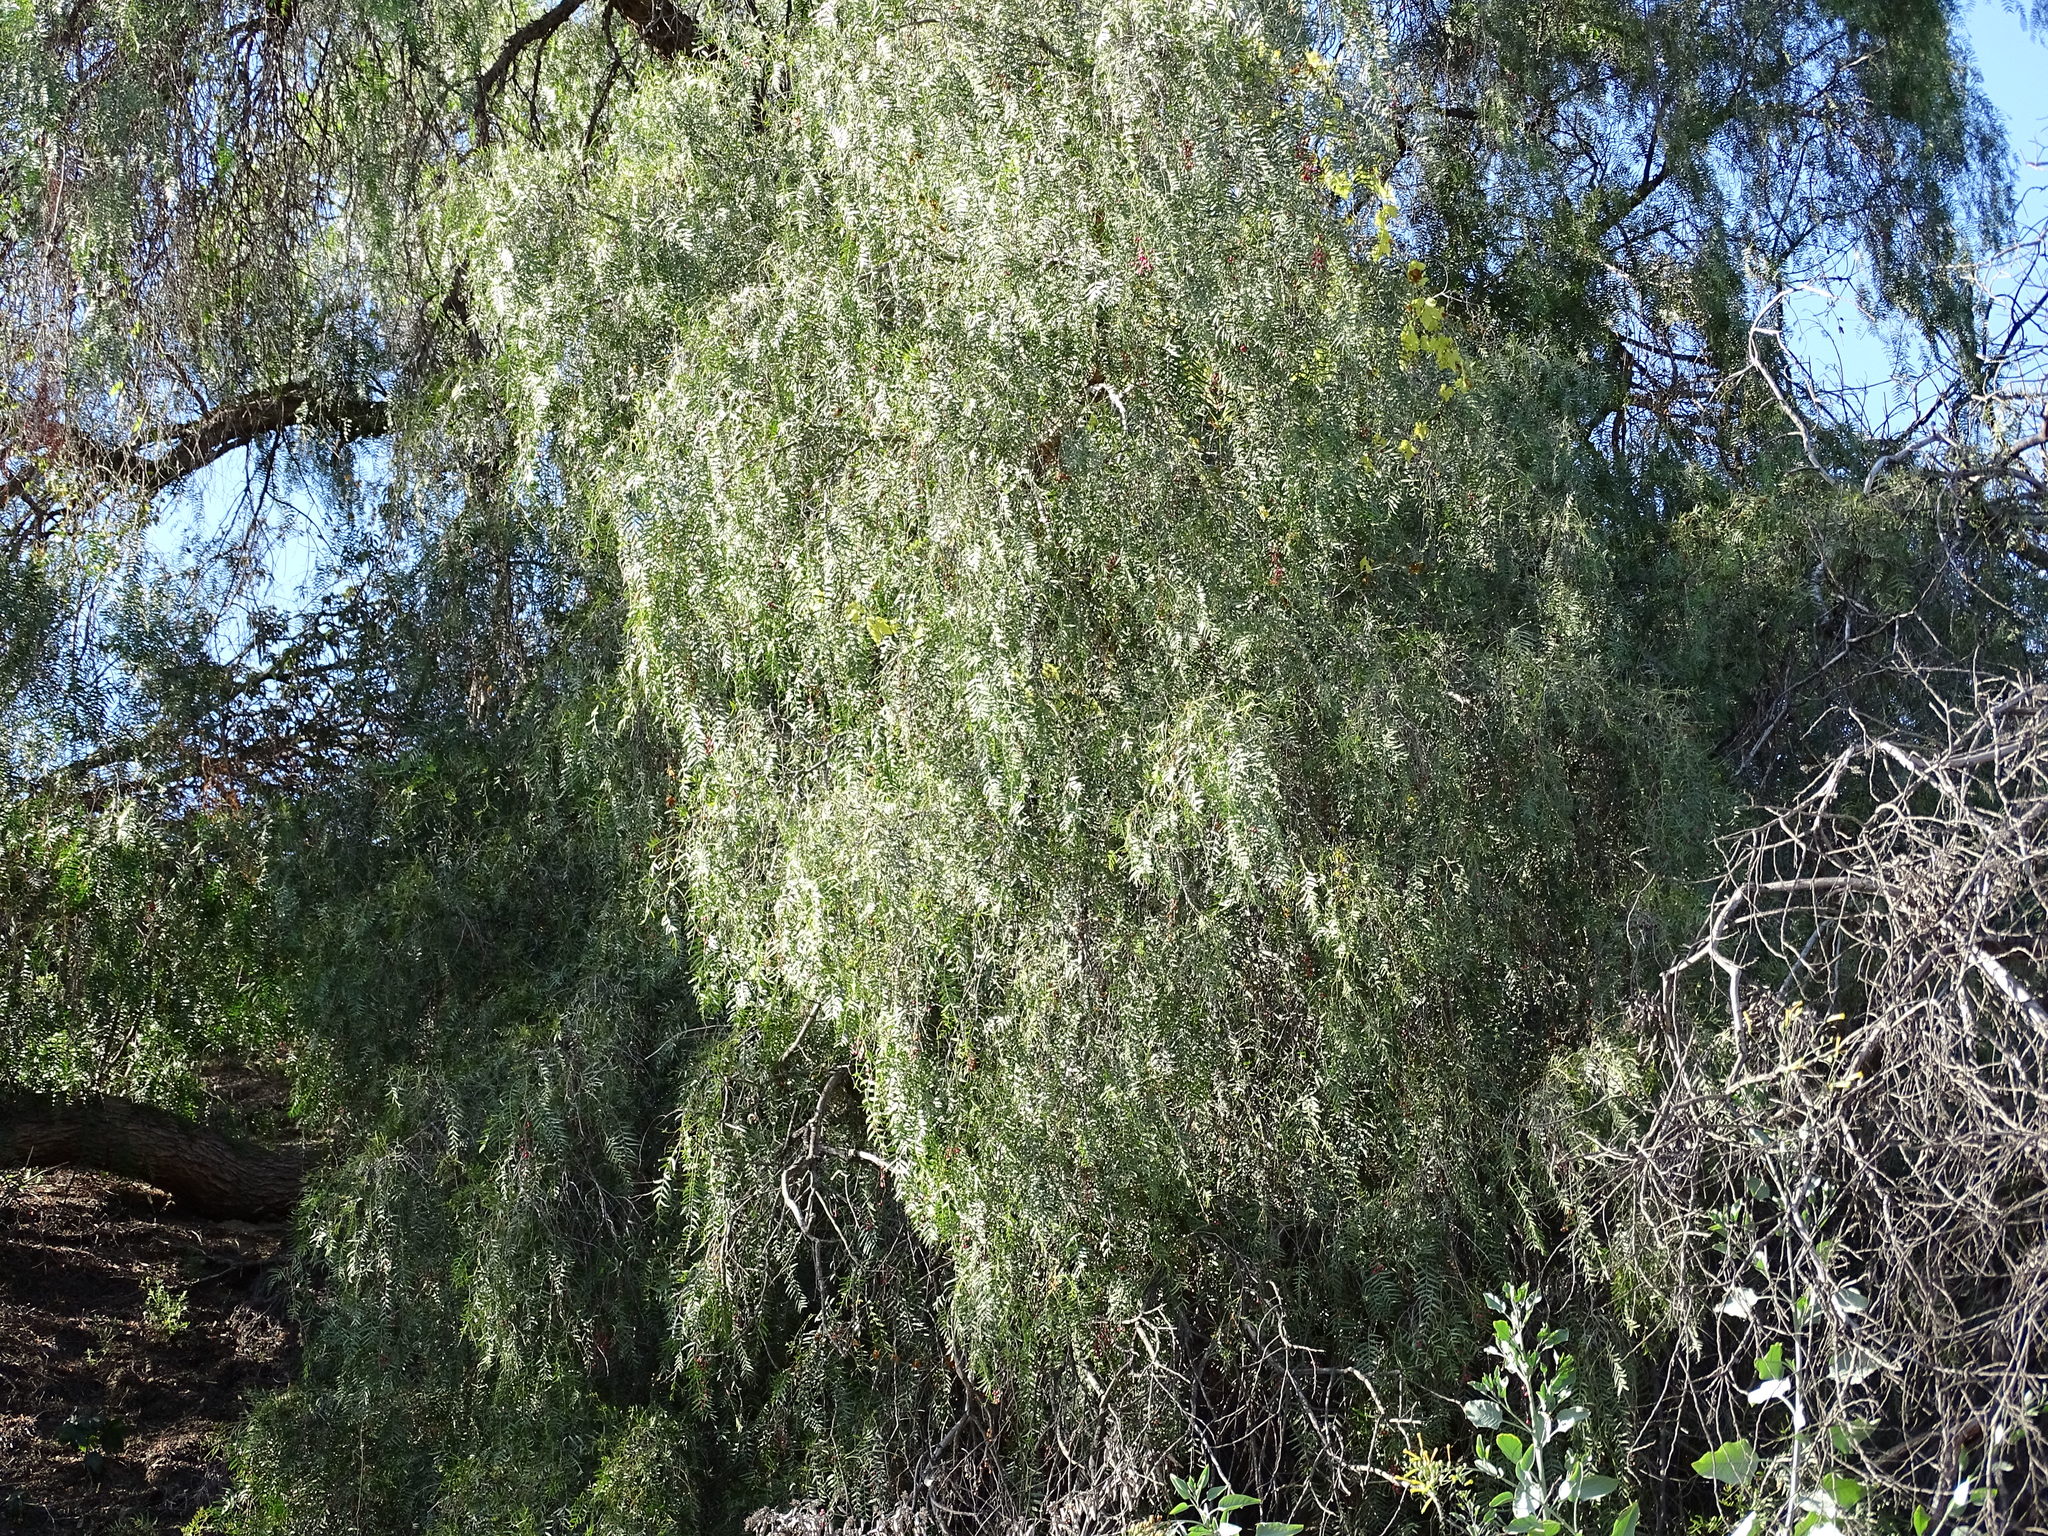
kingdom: Plantae
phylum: Tracheophyta
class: Magnoliopsida
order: Sapindales
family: Anacardiaceae
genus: Schinus
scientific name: Schinus molle
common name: Peruvian peppertree
